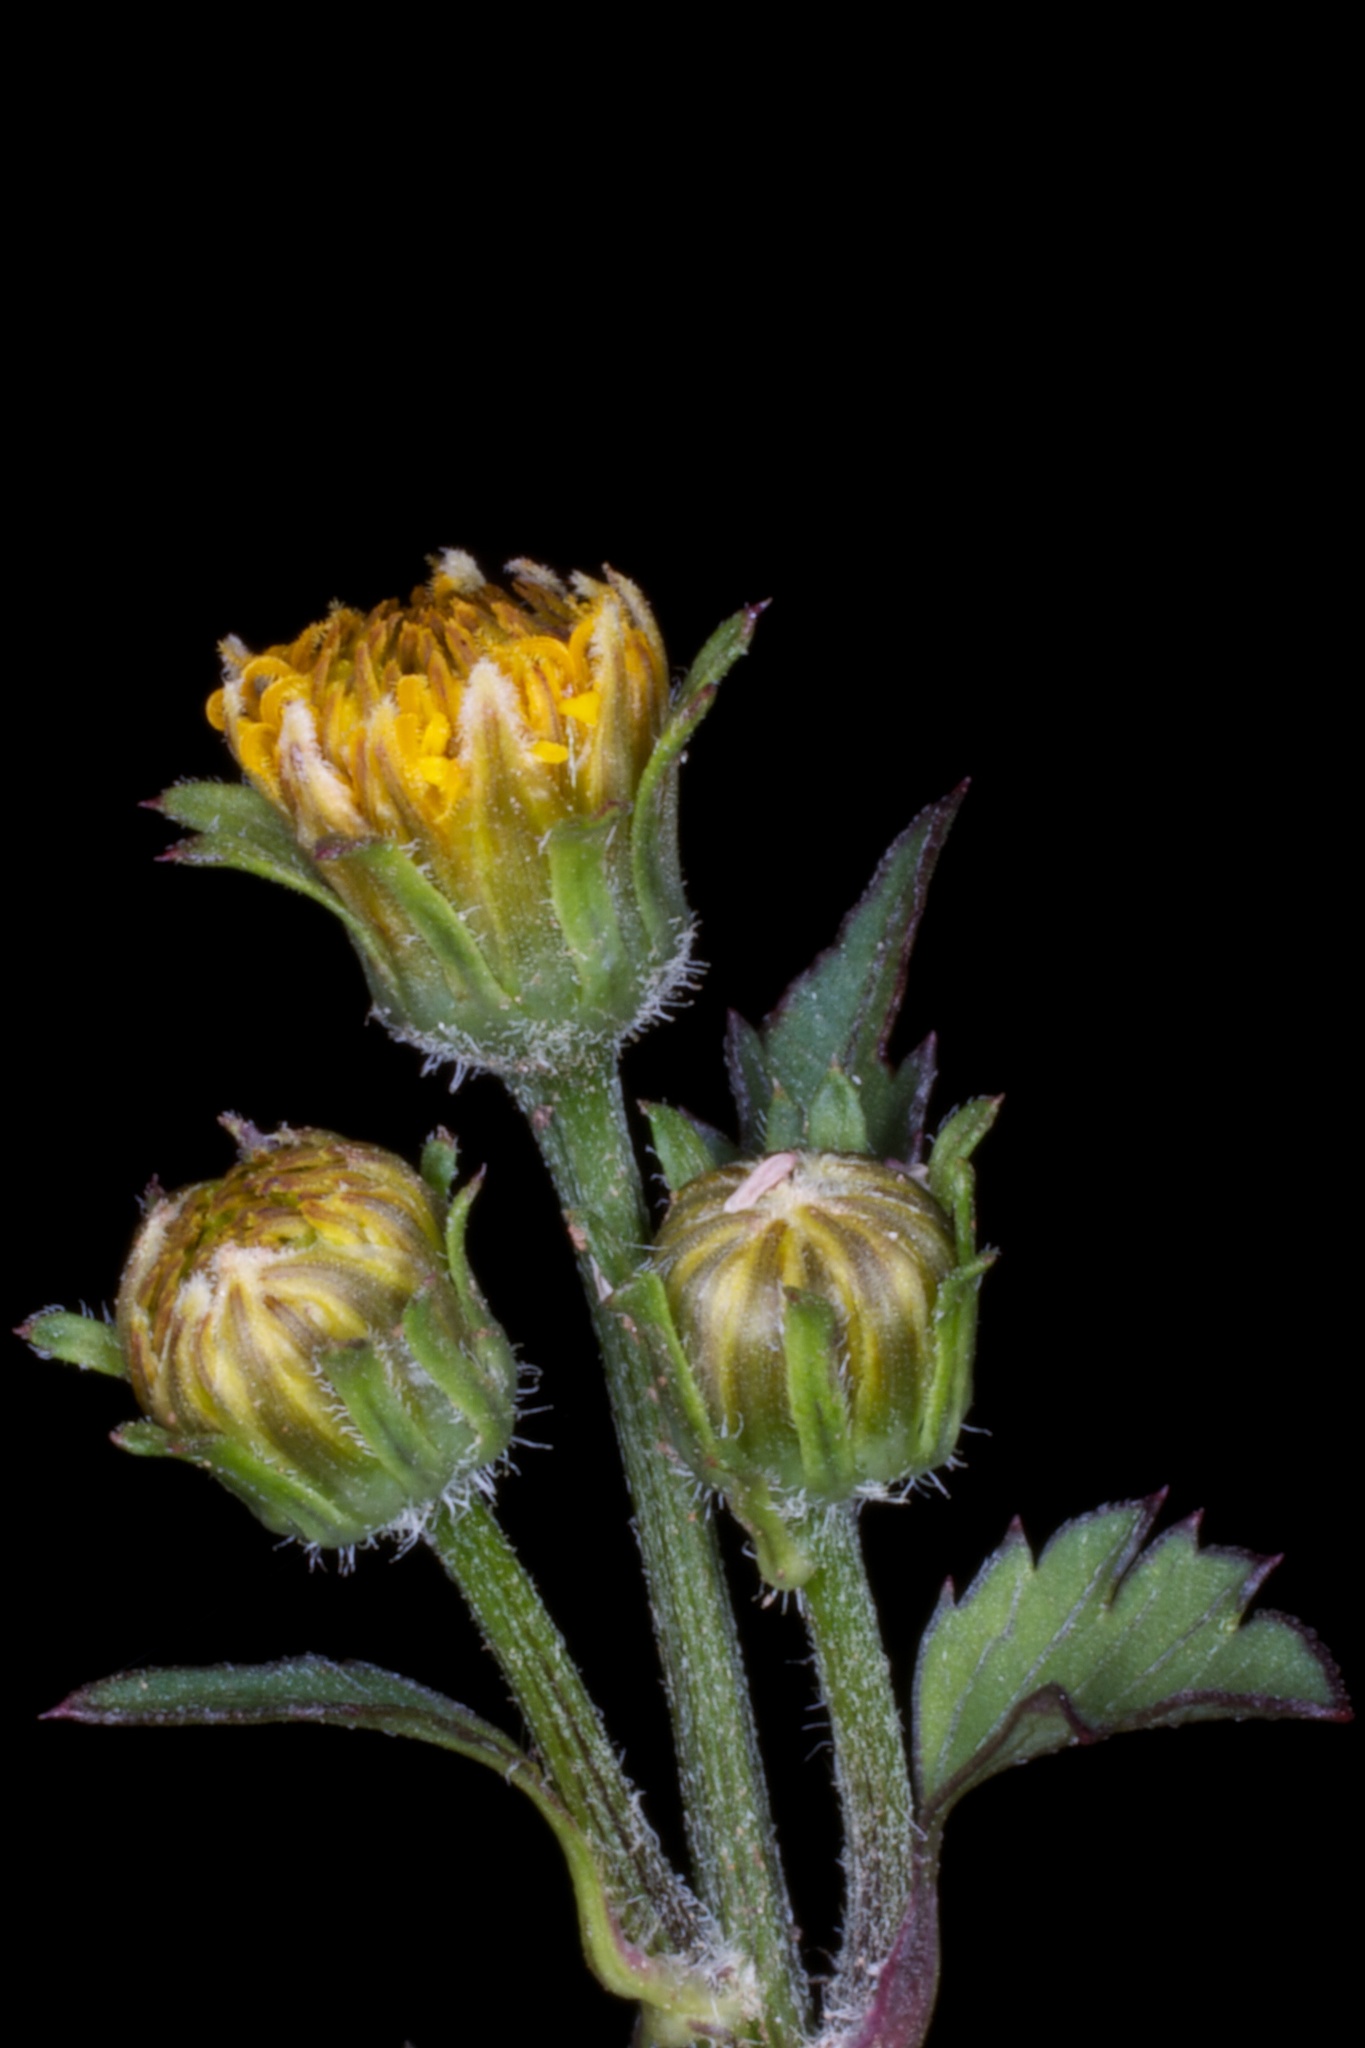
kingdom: Plantae
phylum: Tracheophyta
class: Magnoliopsida
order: Asterales
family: Asteraceae
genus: Bidens
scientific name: Bidens pilosa
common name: Black-jack
